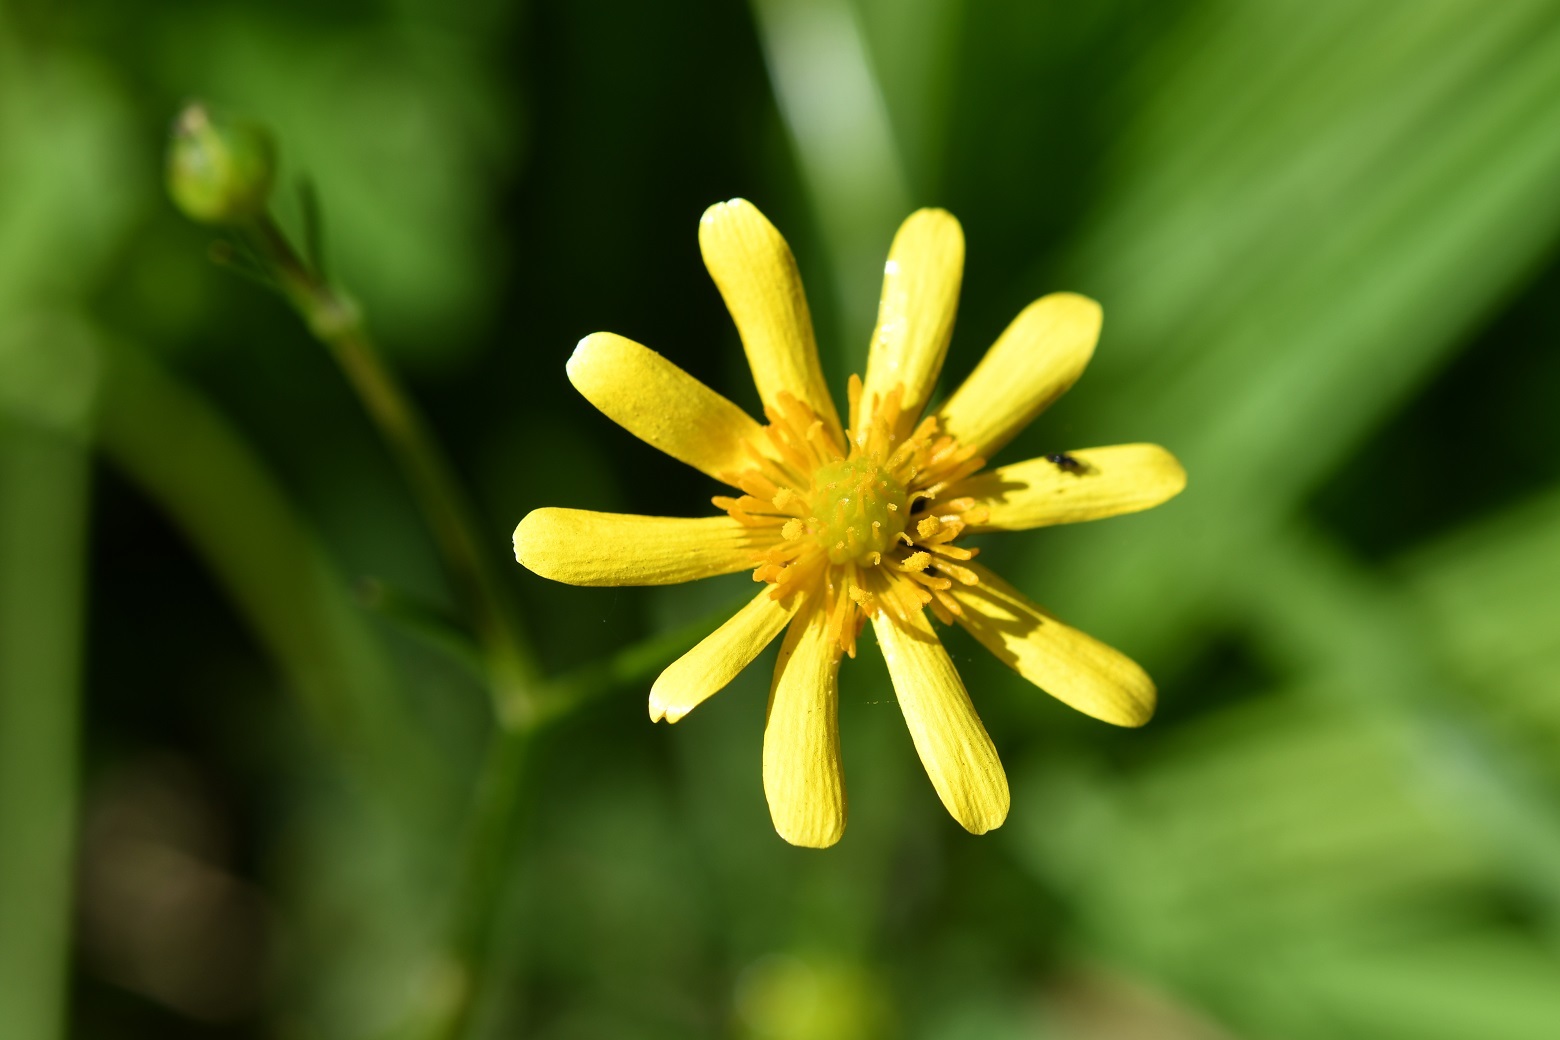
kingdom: Plantae
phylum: Tracheophyta
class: Magnoliopsida
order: Ranunculales
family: Ranunculaceae
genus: Ranunculus
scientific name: Ranunculus petiolaris
